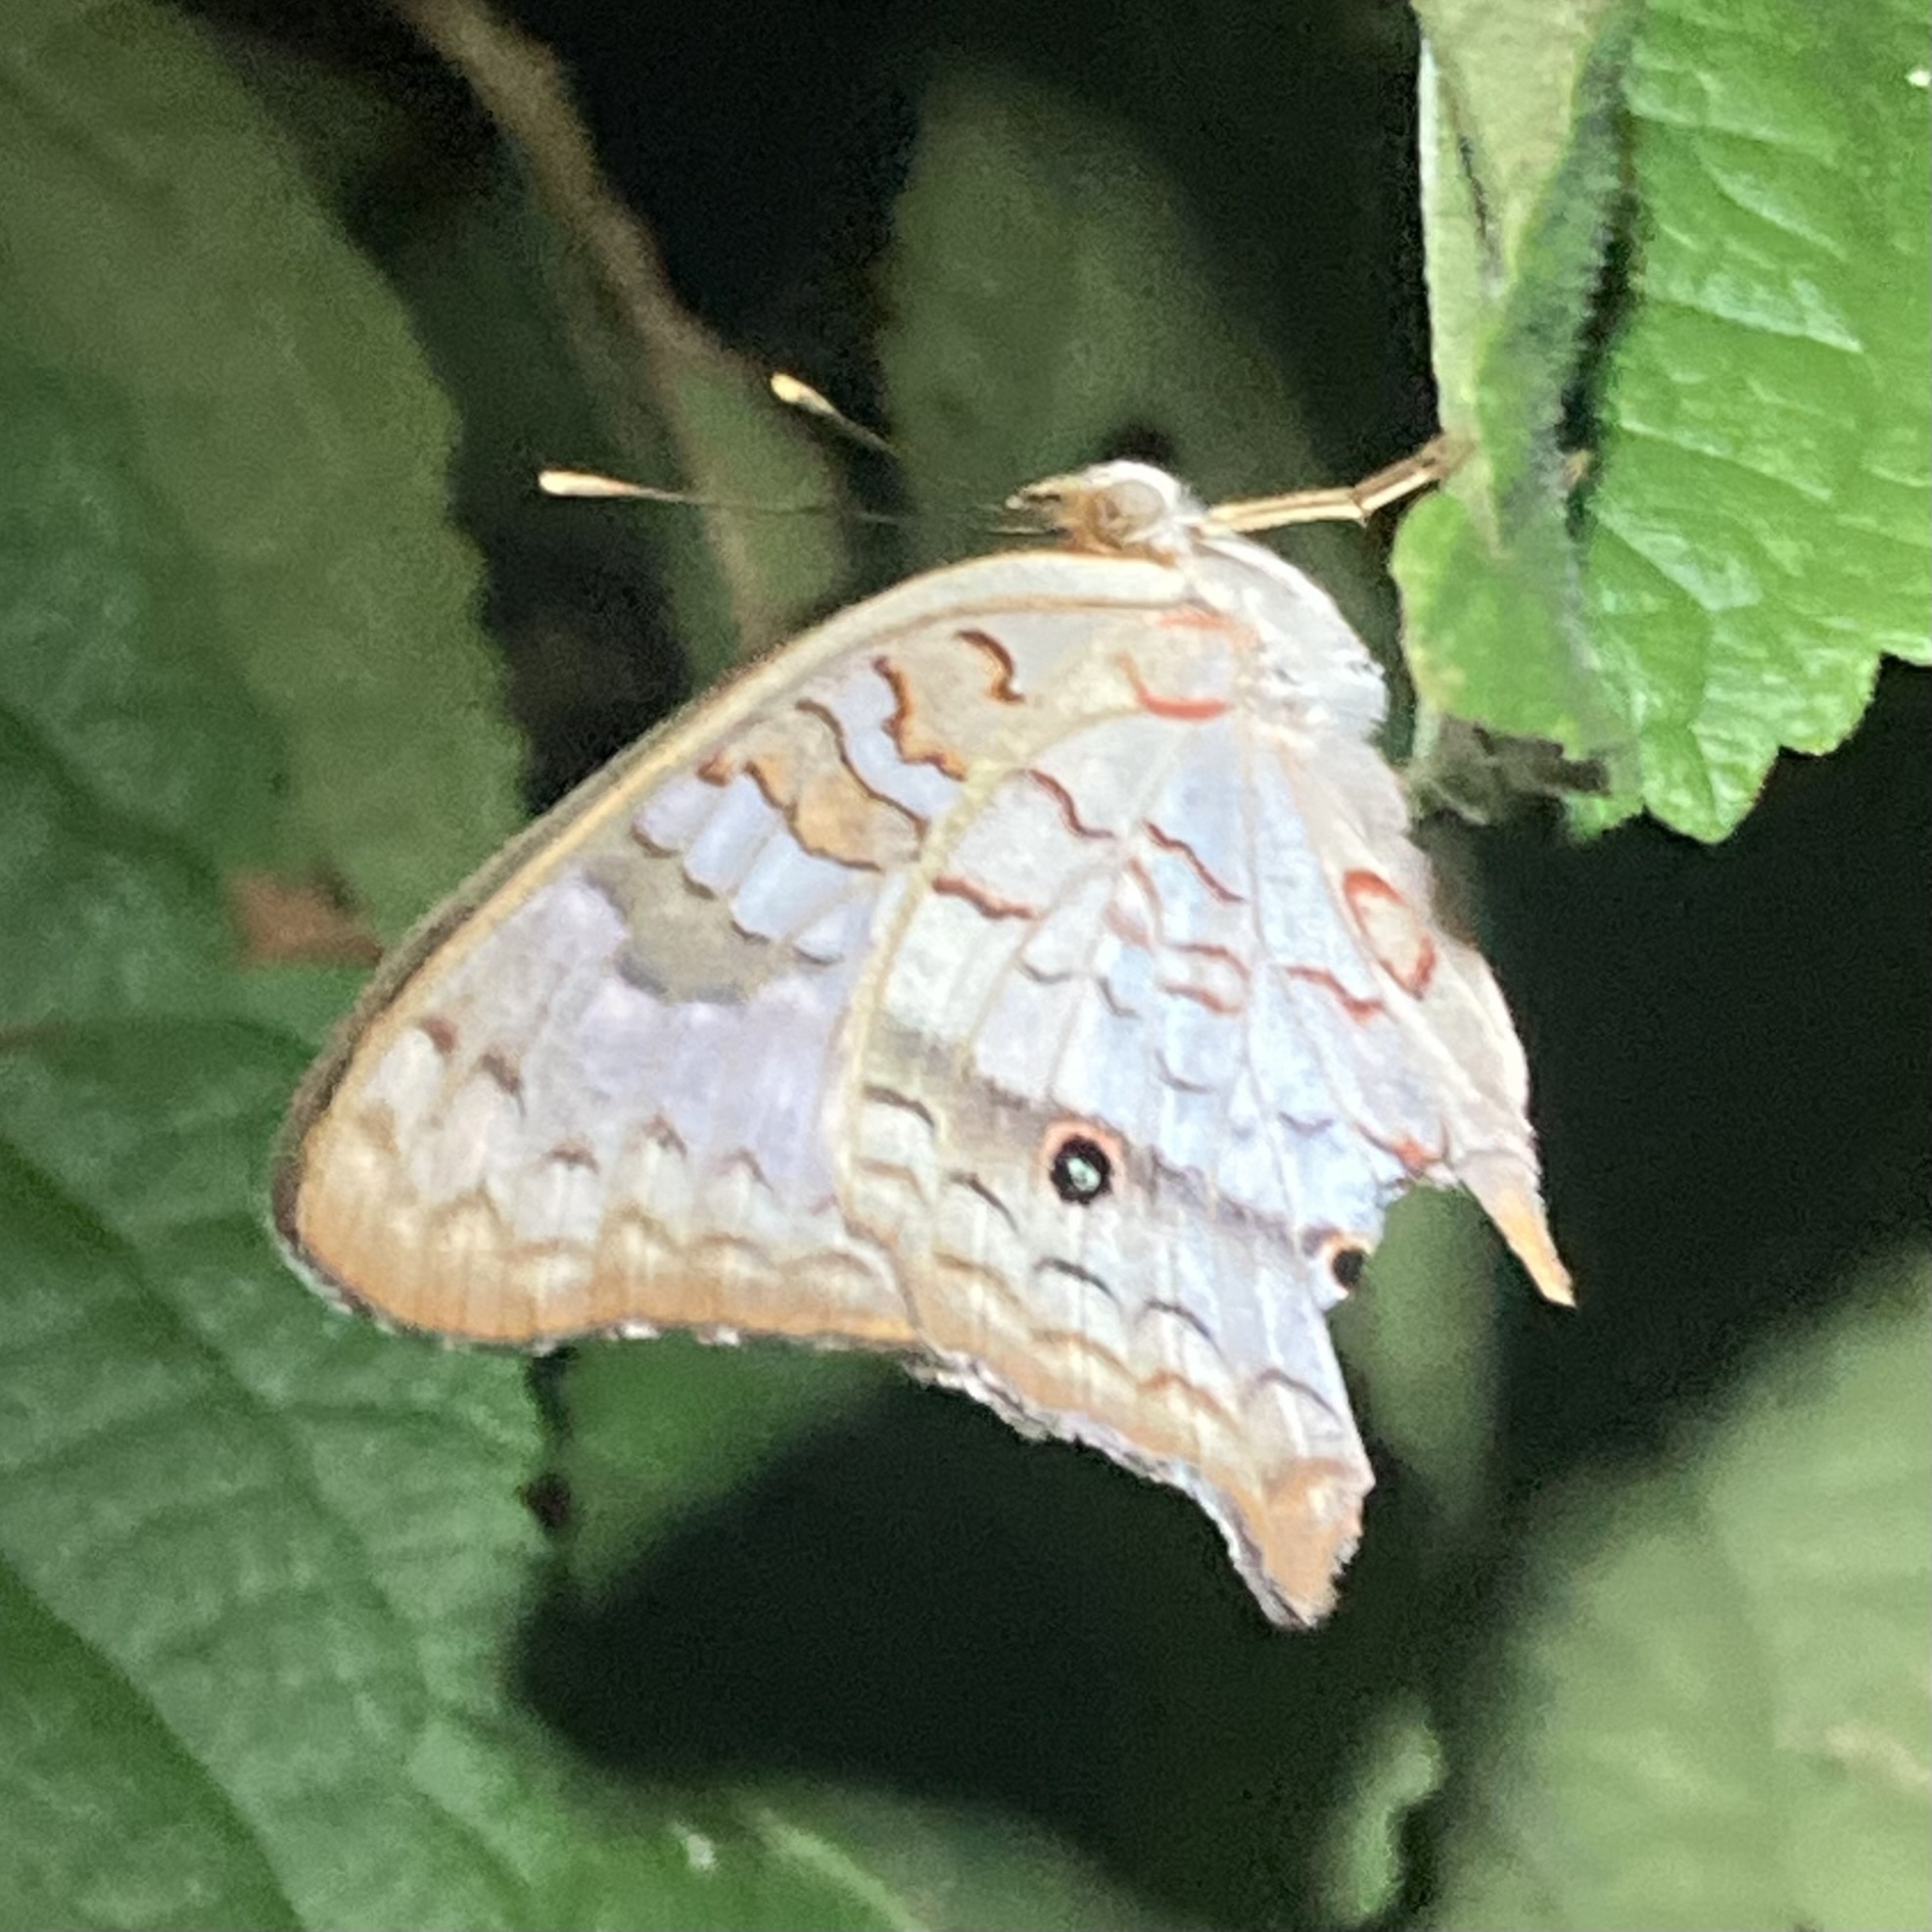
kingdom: Animalia
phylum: Arthropoda
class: Insecta
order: Lepidoptera
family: Nymphalidae
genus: Anartia
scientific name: Anartia jatrophae
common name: White peacock
